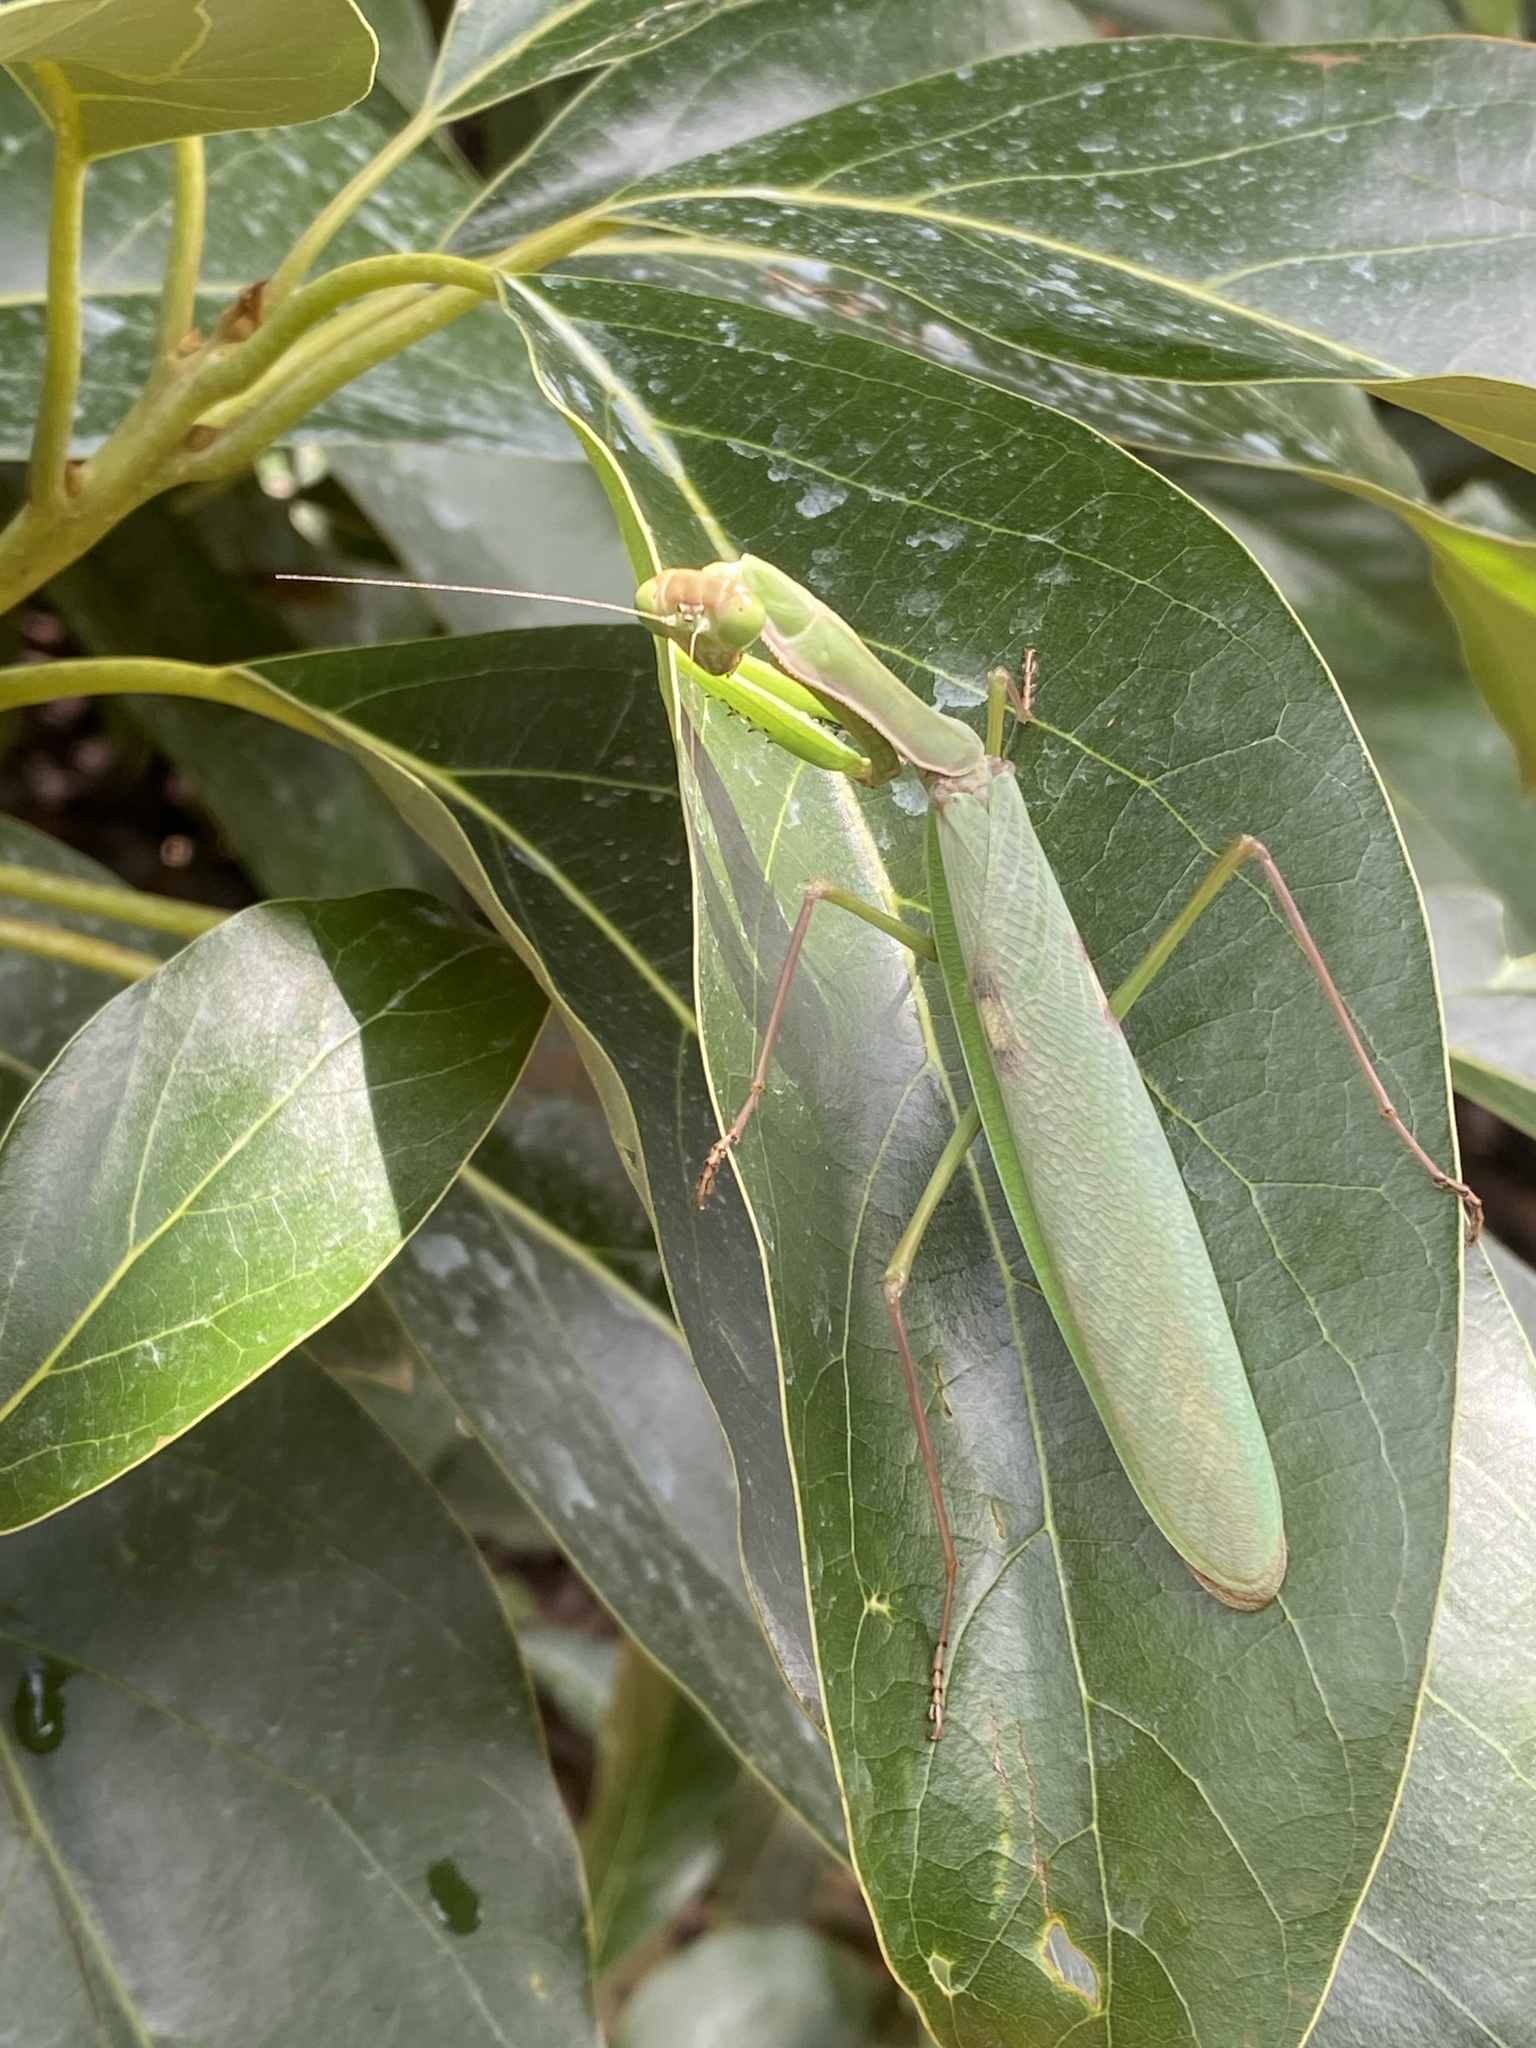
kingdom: Animalia
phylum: Arthropoda
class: Insecta
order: Mantodea
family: Mantidae
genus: Polyspilota
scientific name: Polyspilota aeruginosa
